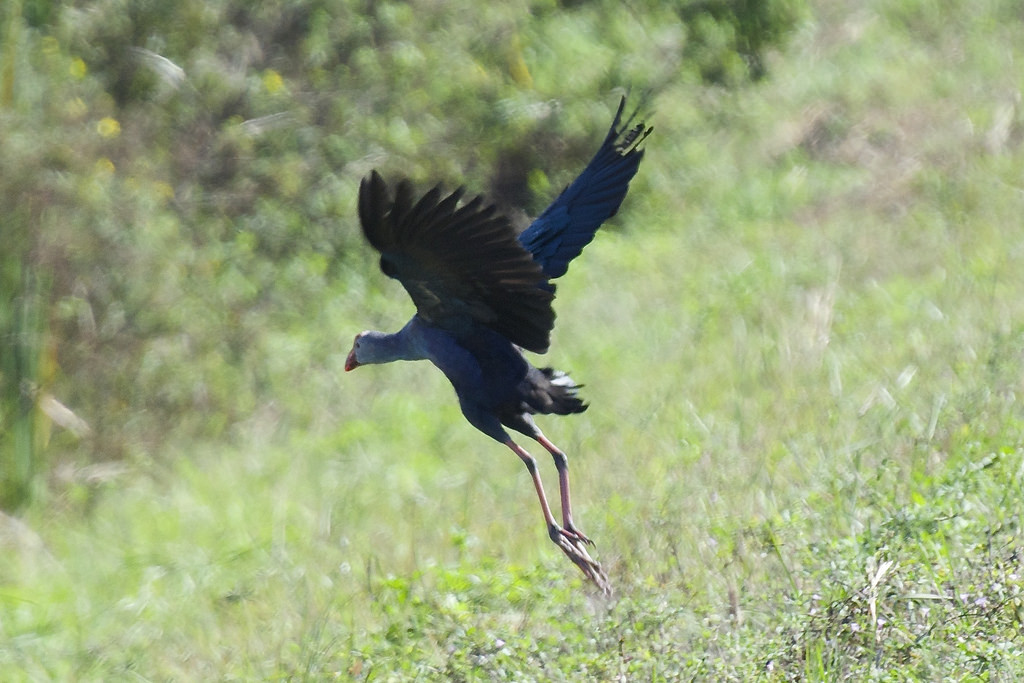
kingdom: Animalia
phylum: Chordata
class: Aves
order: Gruiformes
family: Rallidae
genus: Porphyrio
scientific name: Porphyrio porphyrio
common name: Purple swamphen
